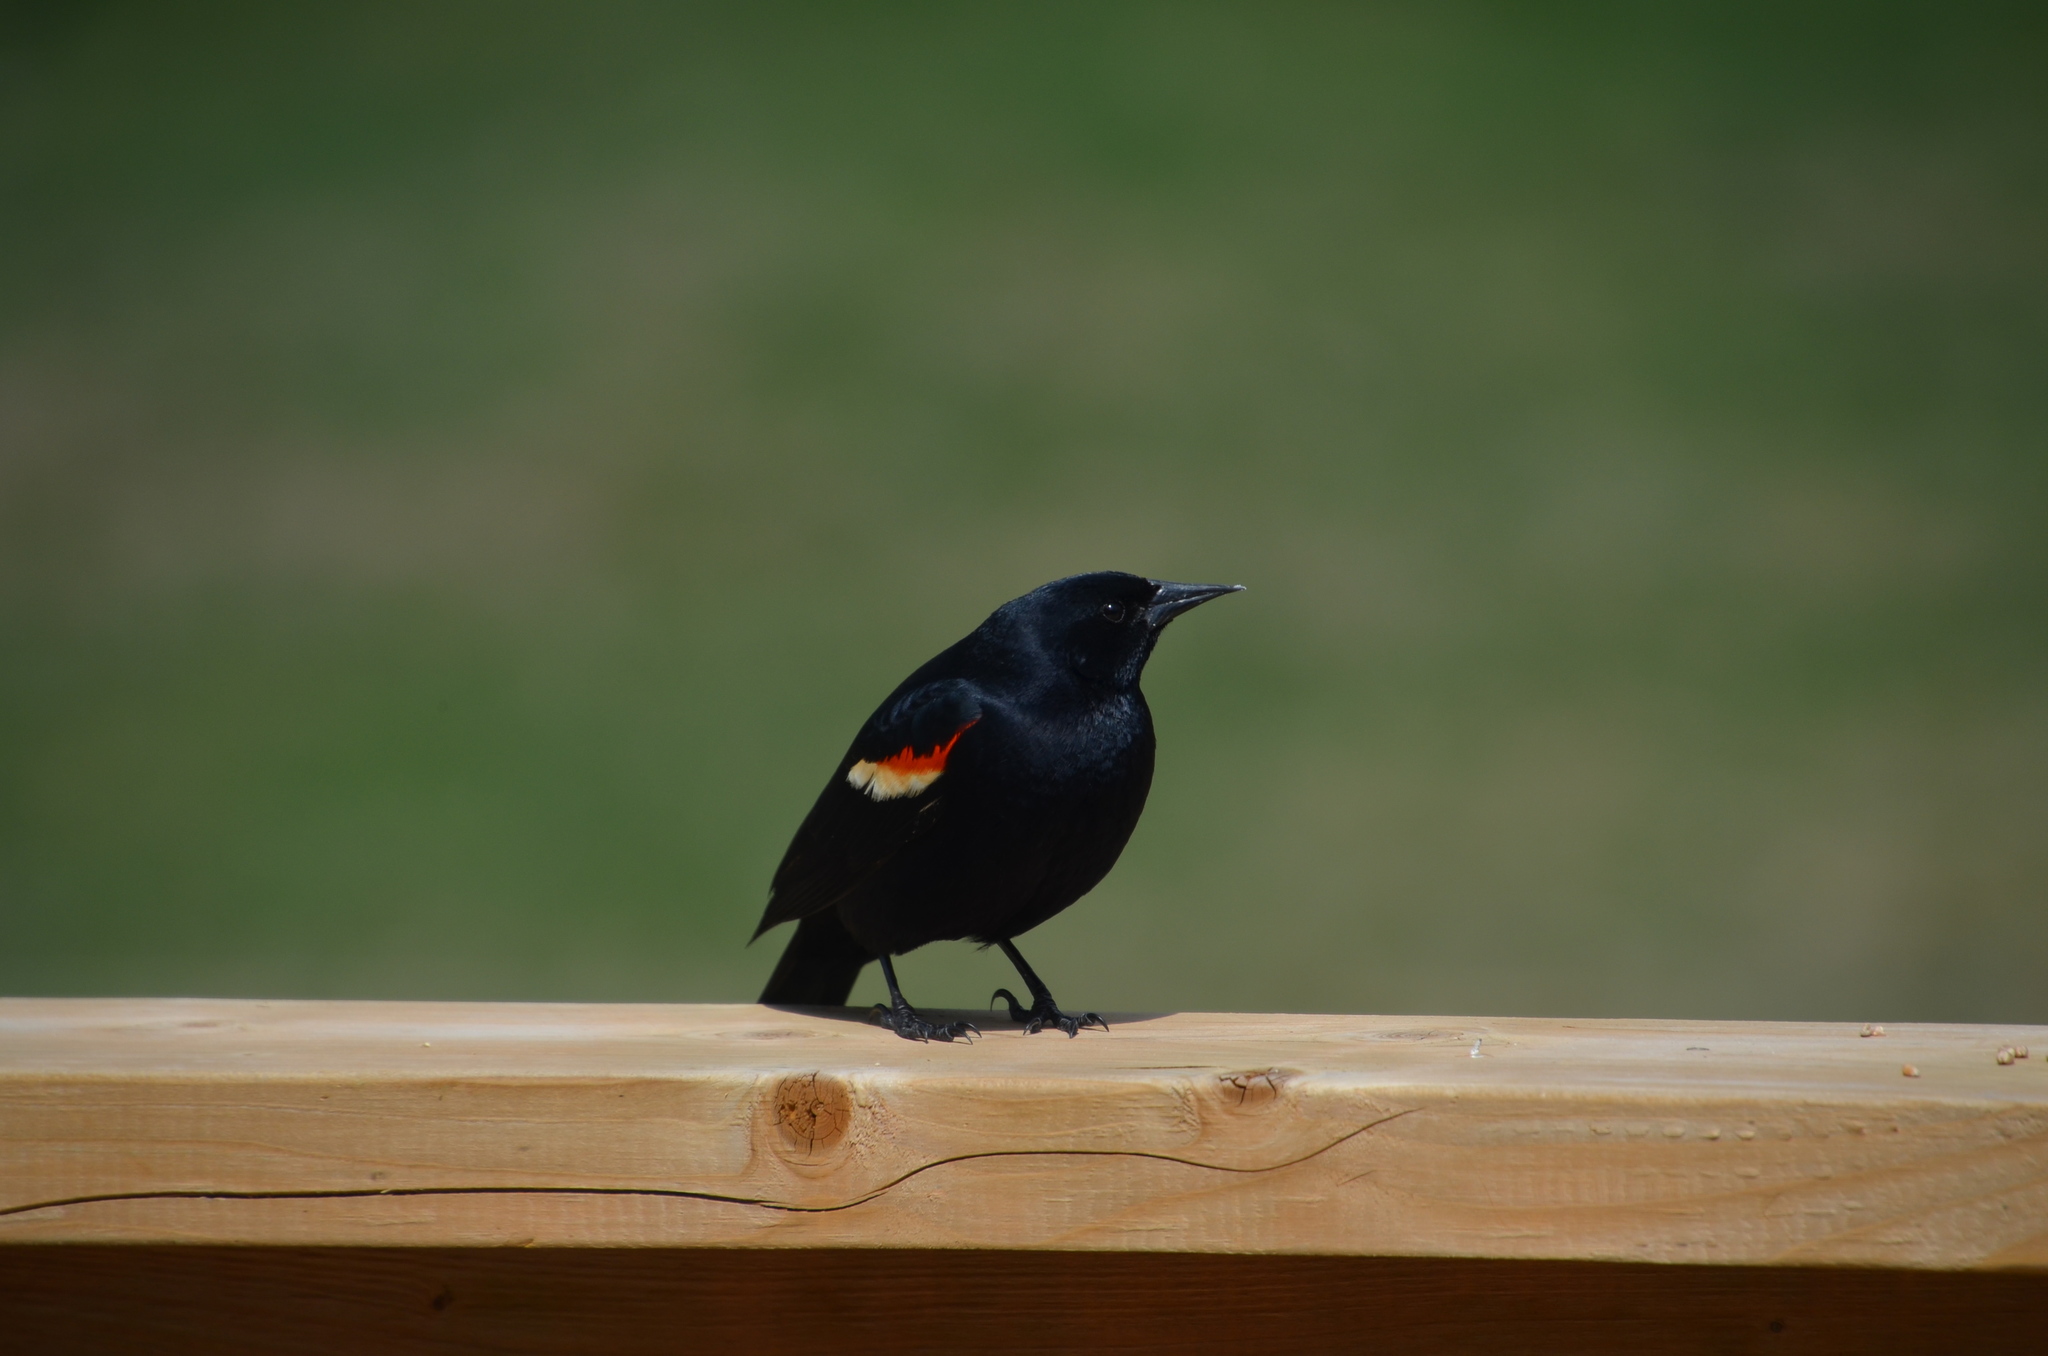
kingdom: Animalia
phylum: Chordata
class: Aves
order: Passeriformes
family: Icteridae
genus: Agelaius
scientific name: Agelaius phoeniceus
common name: Red-winged blackbird
